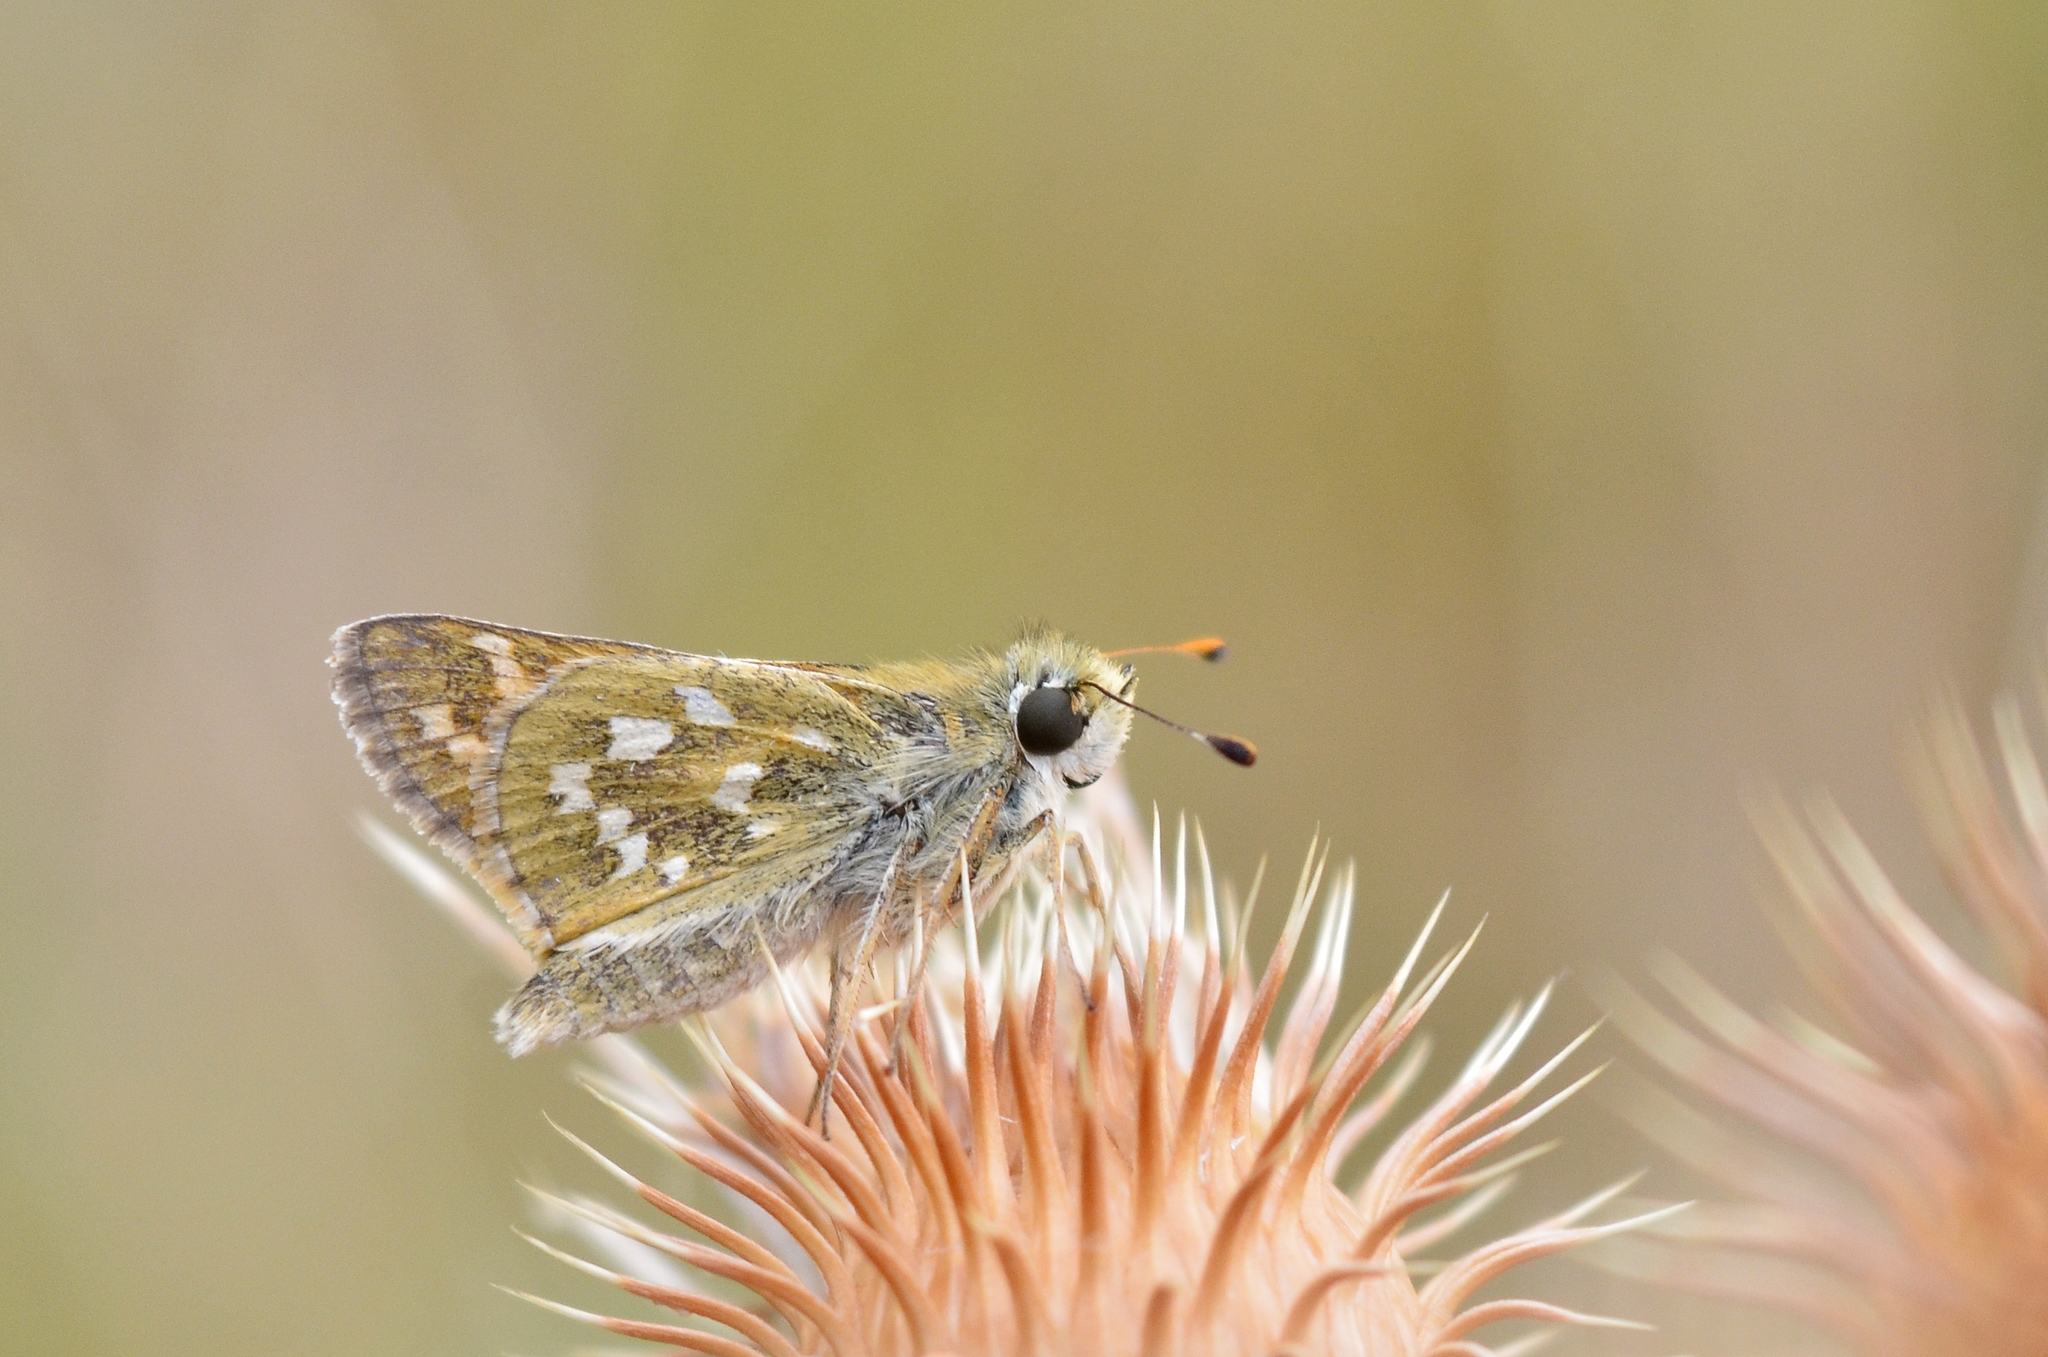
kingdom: Animalia
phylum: Arthropoda
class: Insecta
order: Lepidoptera
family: Hesperiidae
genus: Hesperia
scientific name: Hesperia comma
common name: Common branded skipper
